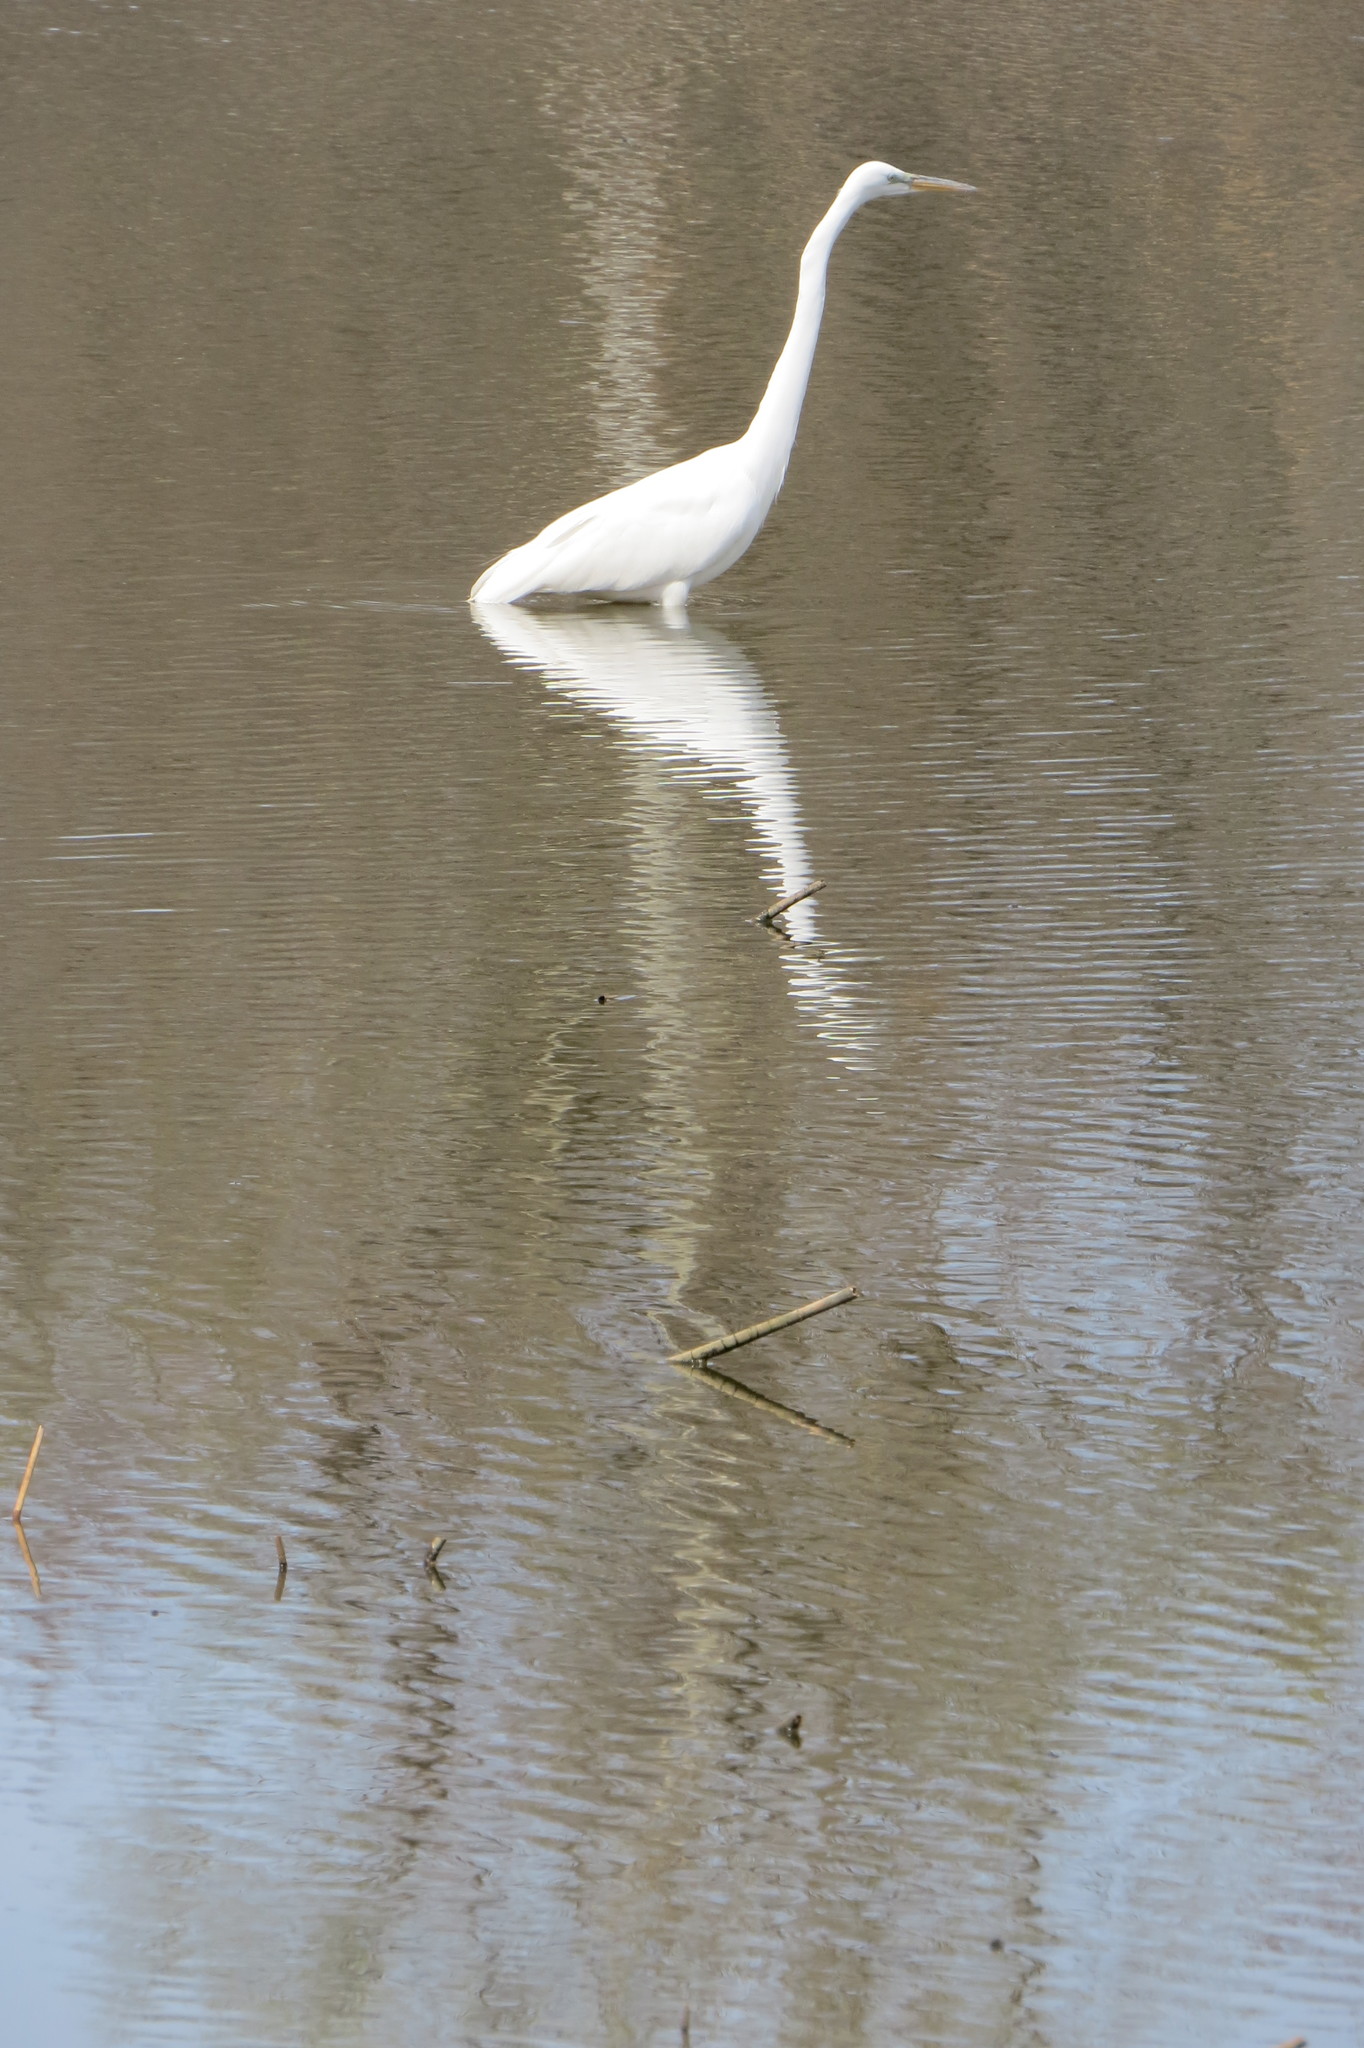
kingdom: Animalia
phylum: Chordata
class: Aves
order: Pelecaniformes
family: Ardeidae
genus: Ardea
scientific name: Ardea alba
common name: Great egret
